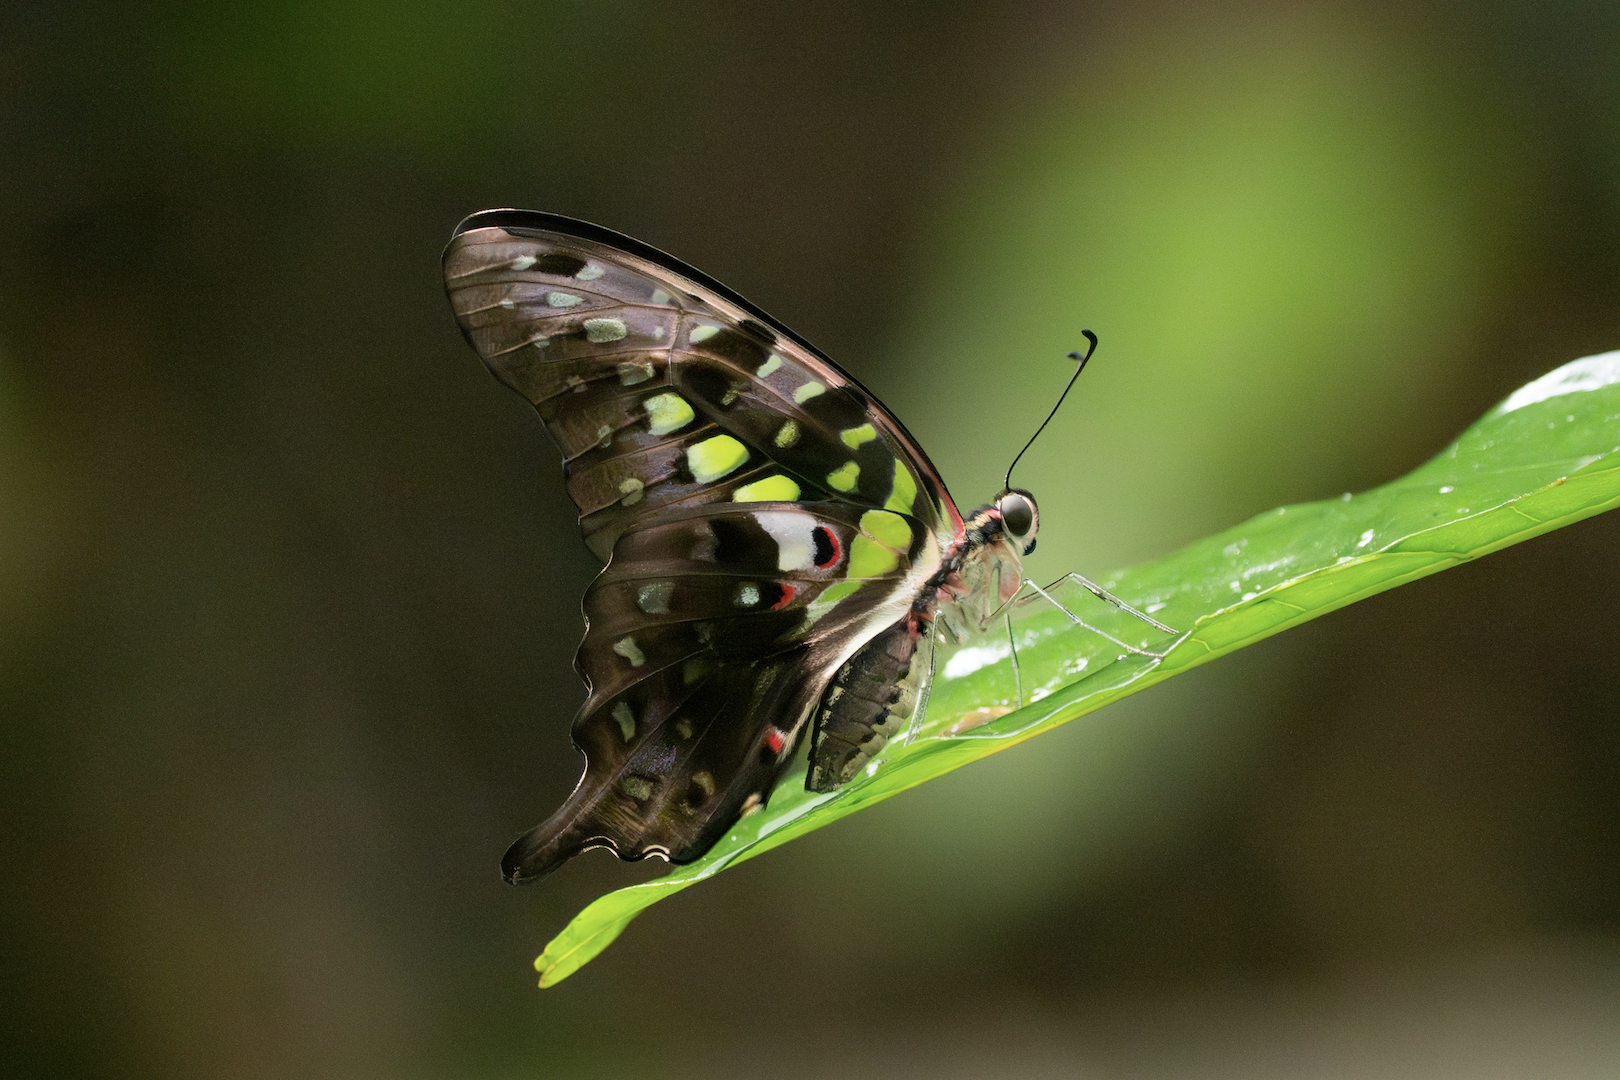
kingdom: Animalia
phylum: Arthropoda
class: Insecta
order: Lepidoptera
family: Papilionidae
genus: Graphium
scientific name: Graphium agamemnon
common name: Tailed jay
